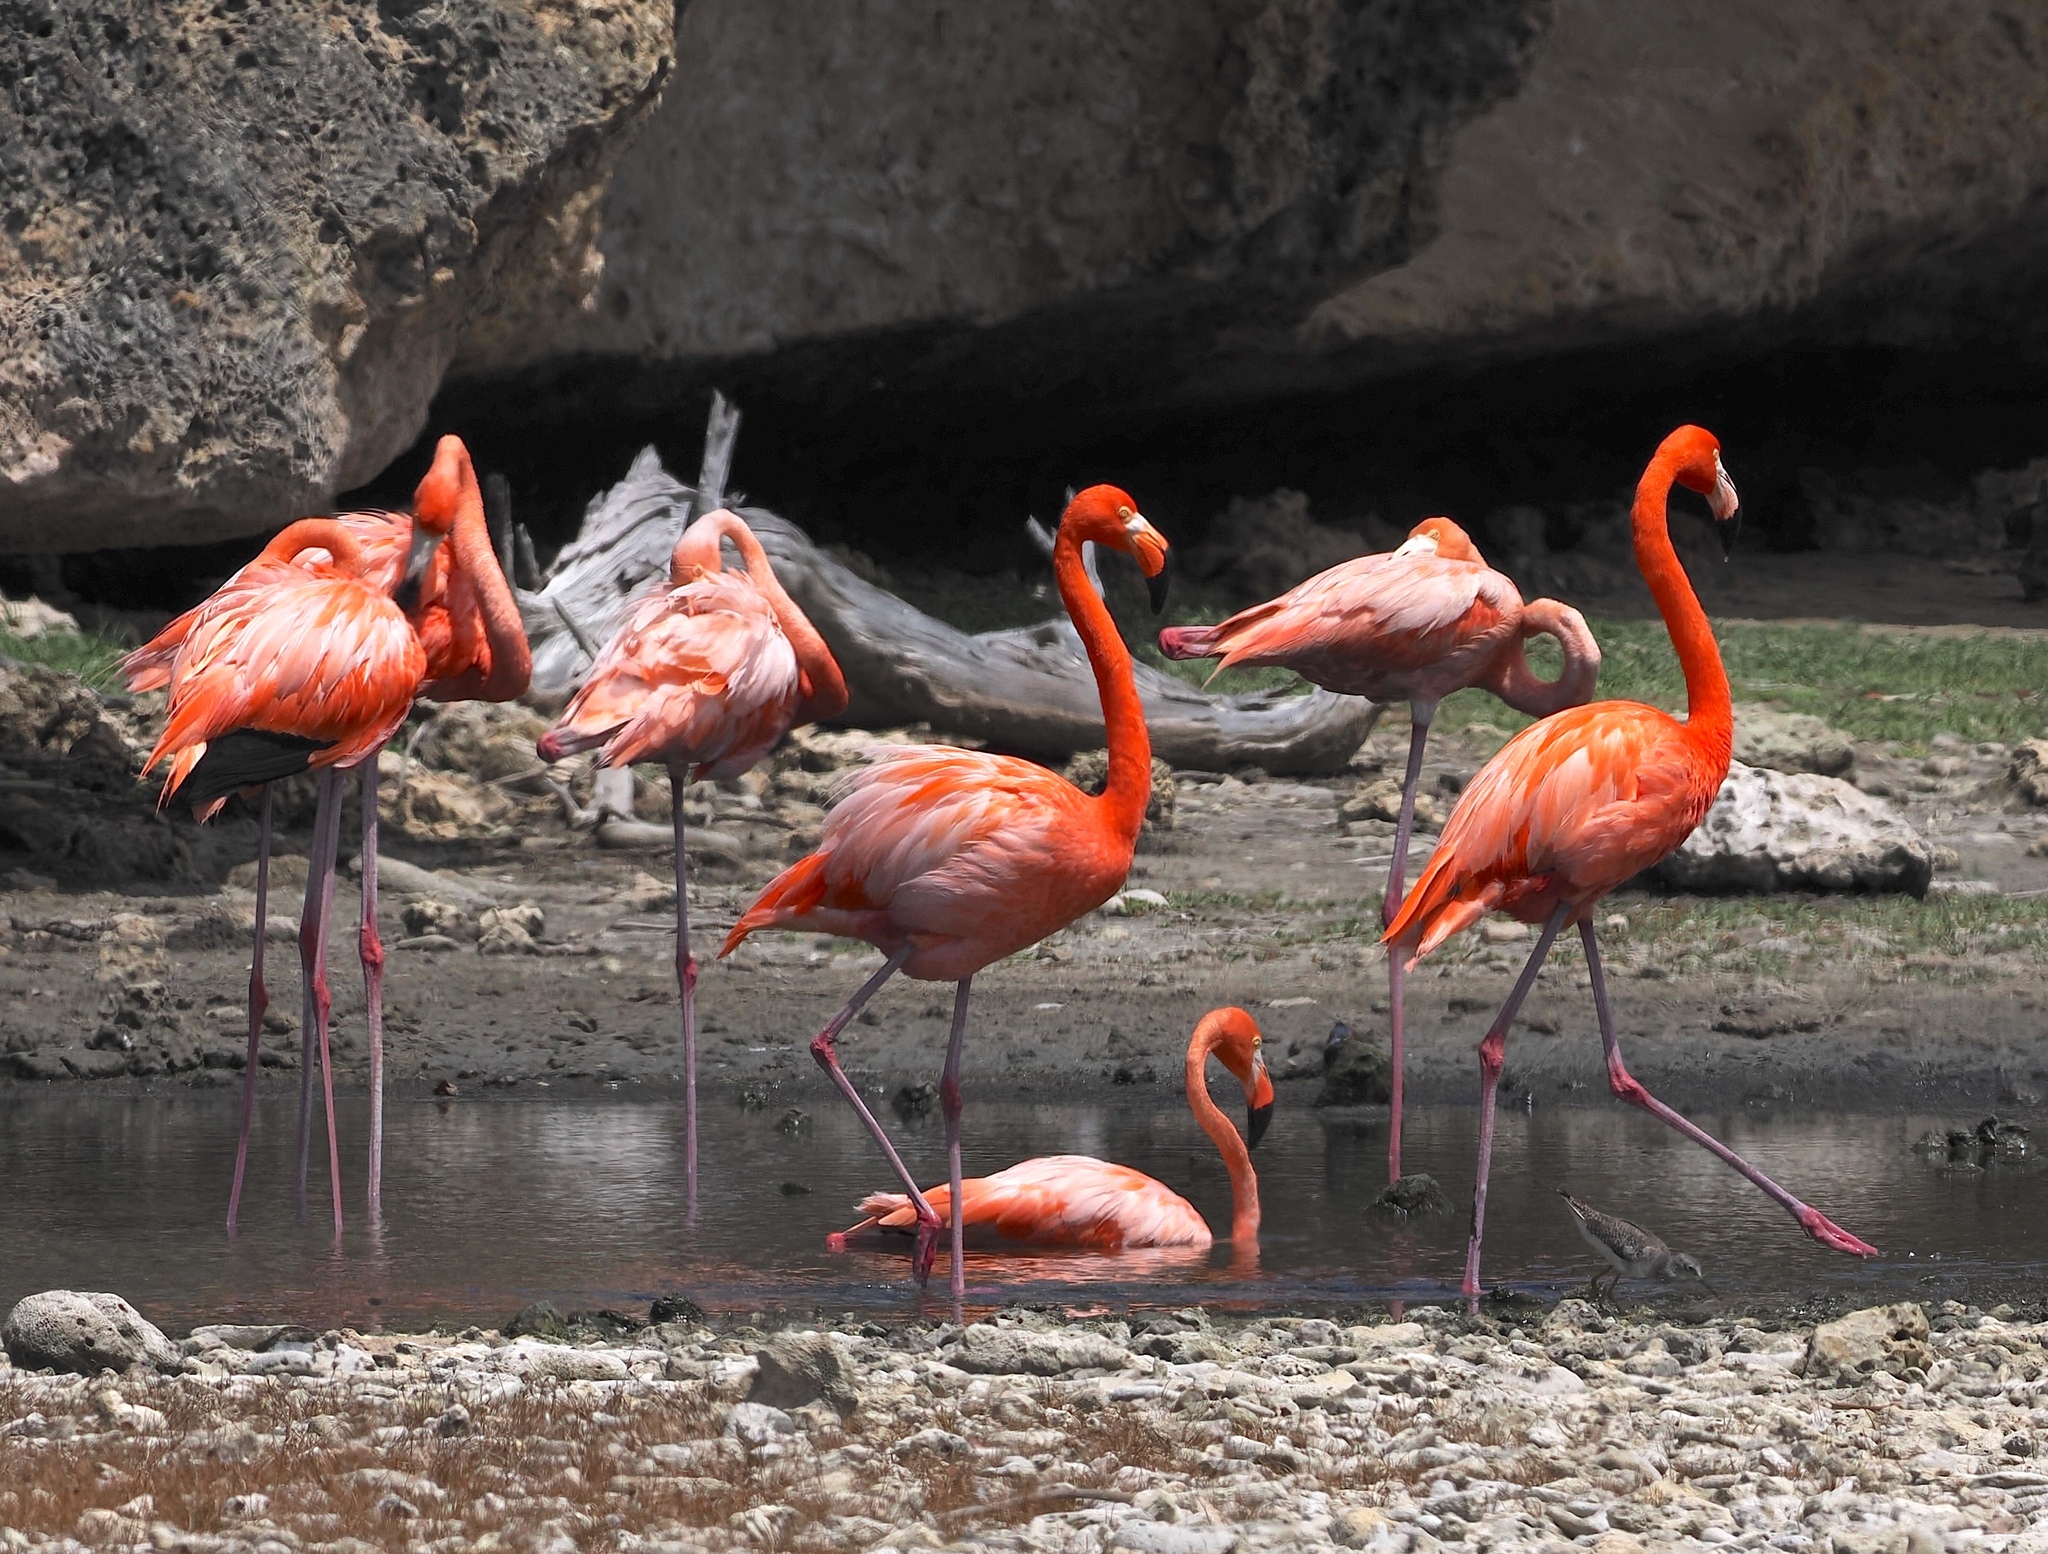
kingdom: Animalia
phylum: Chordata
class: Aves
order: Phoenicopteriformes
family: Phoenicopteridae
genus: Phoenicopterus
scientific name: Phoenicopterus ruber
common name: American flamingo
